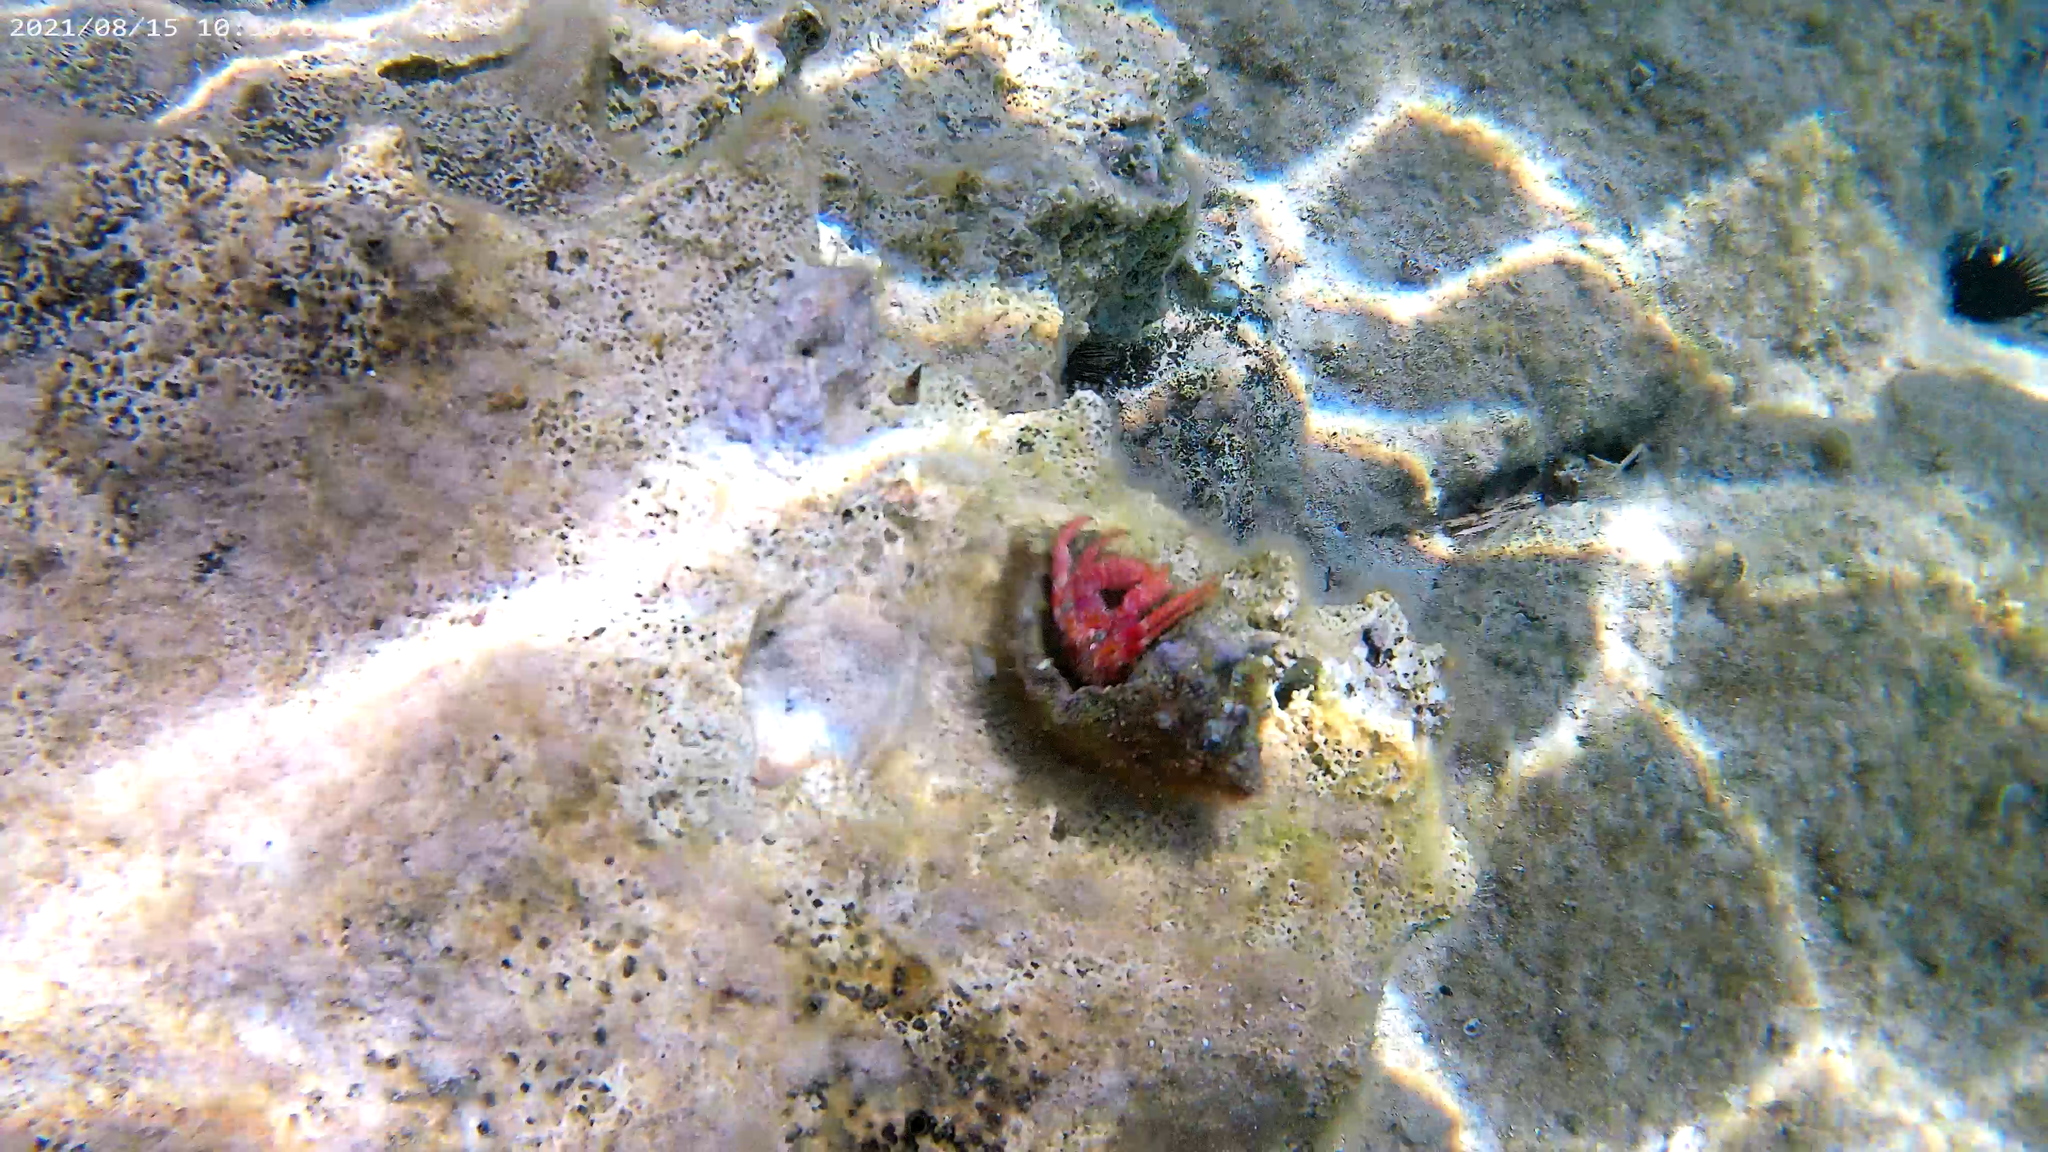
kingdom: Animalia
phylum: Arthropoda
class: Malacostraca
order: Decapoda
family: Diogenidae
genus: Dardanus
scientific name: Dardanus calidus
